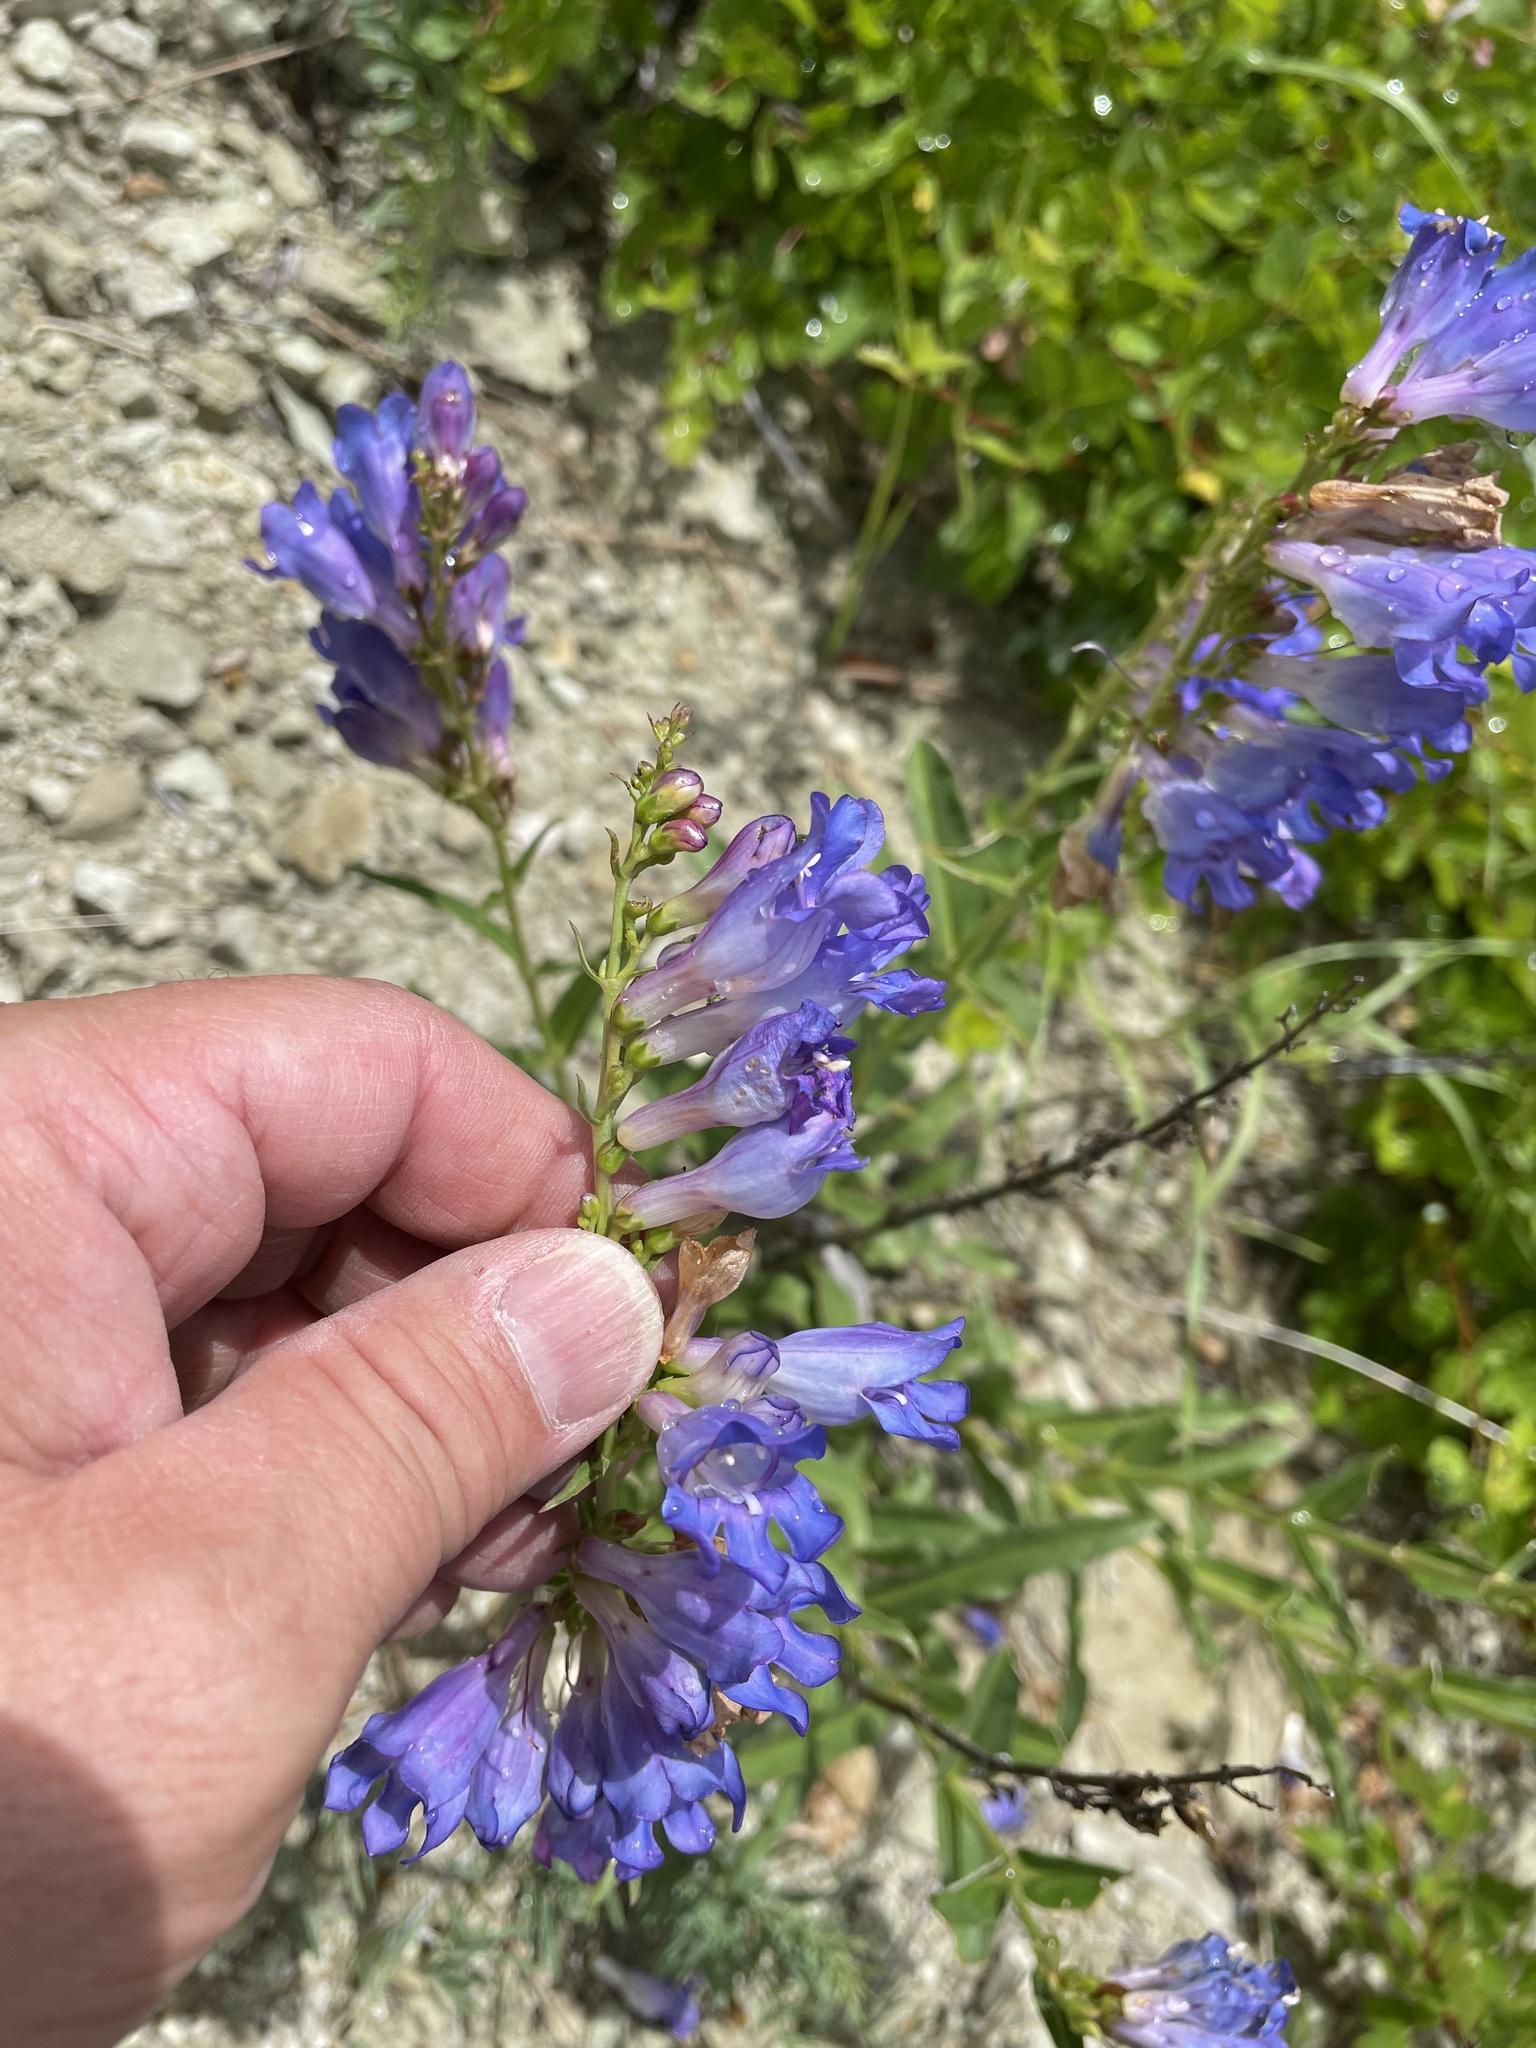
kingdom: Plantae
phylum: Tracheophyta
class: Magnoliopsida
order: Lamiales
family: Plantaginaceae
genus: Penstemon
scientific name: Penstemon glaber
